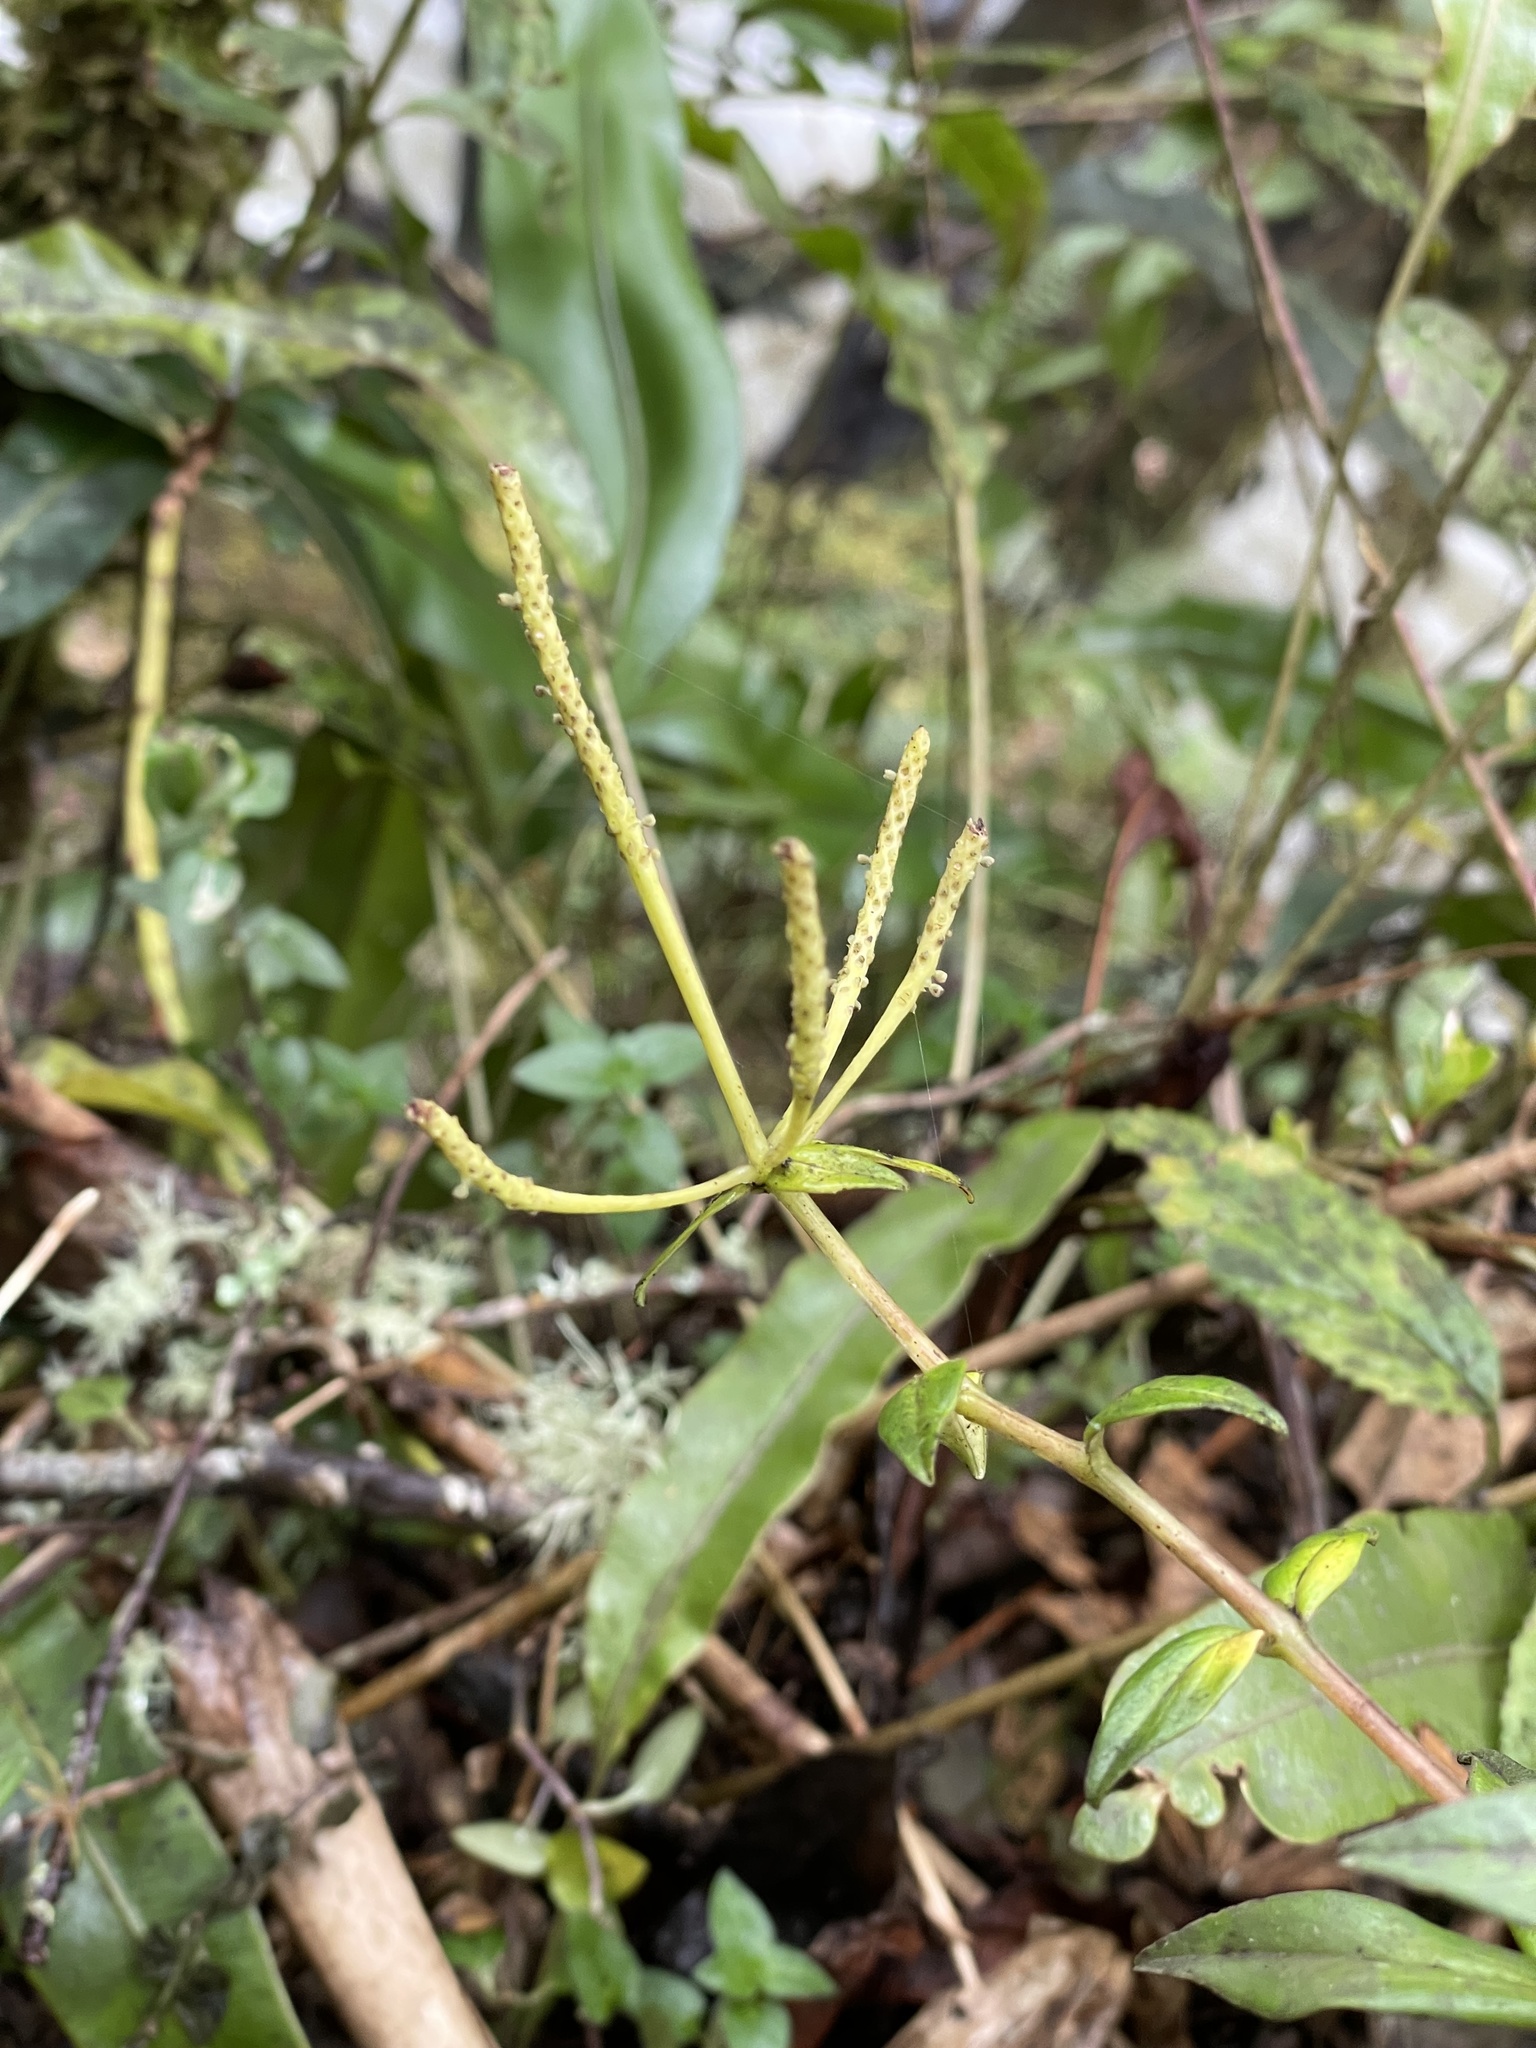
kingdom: Plantae
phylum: Tracheophyta
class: Magnoliopsida
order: Piperales
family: Piperaceae
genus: Peperomia
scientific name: Peperomia saligna
